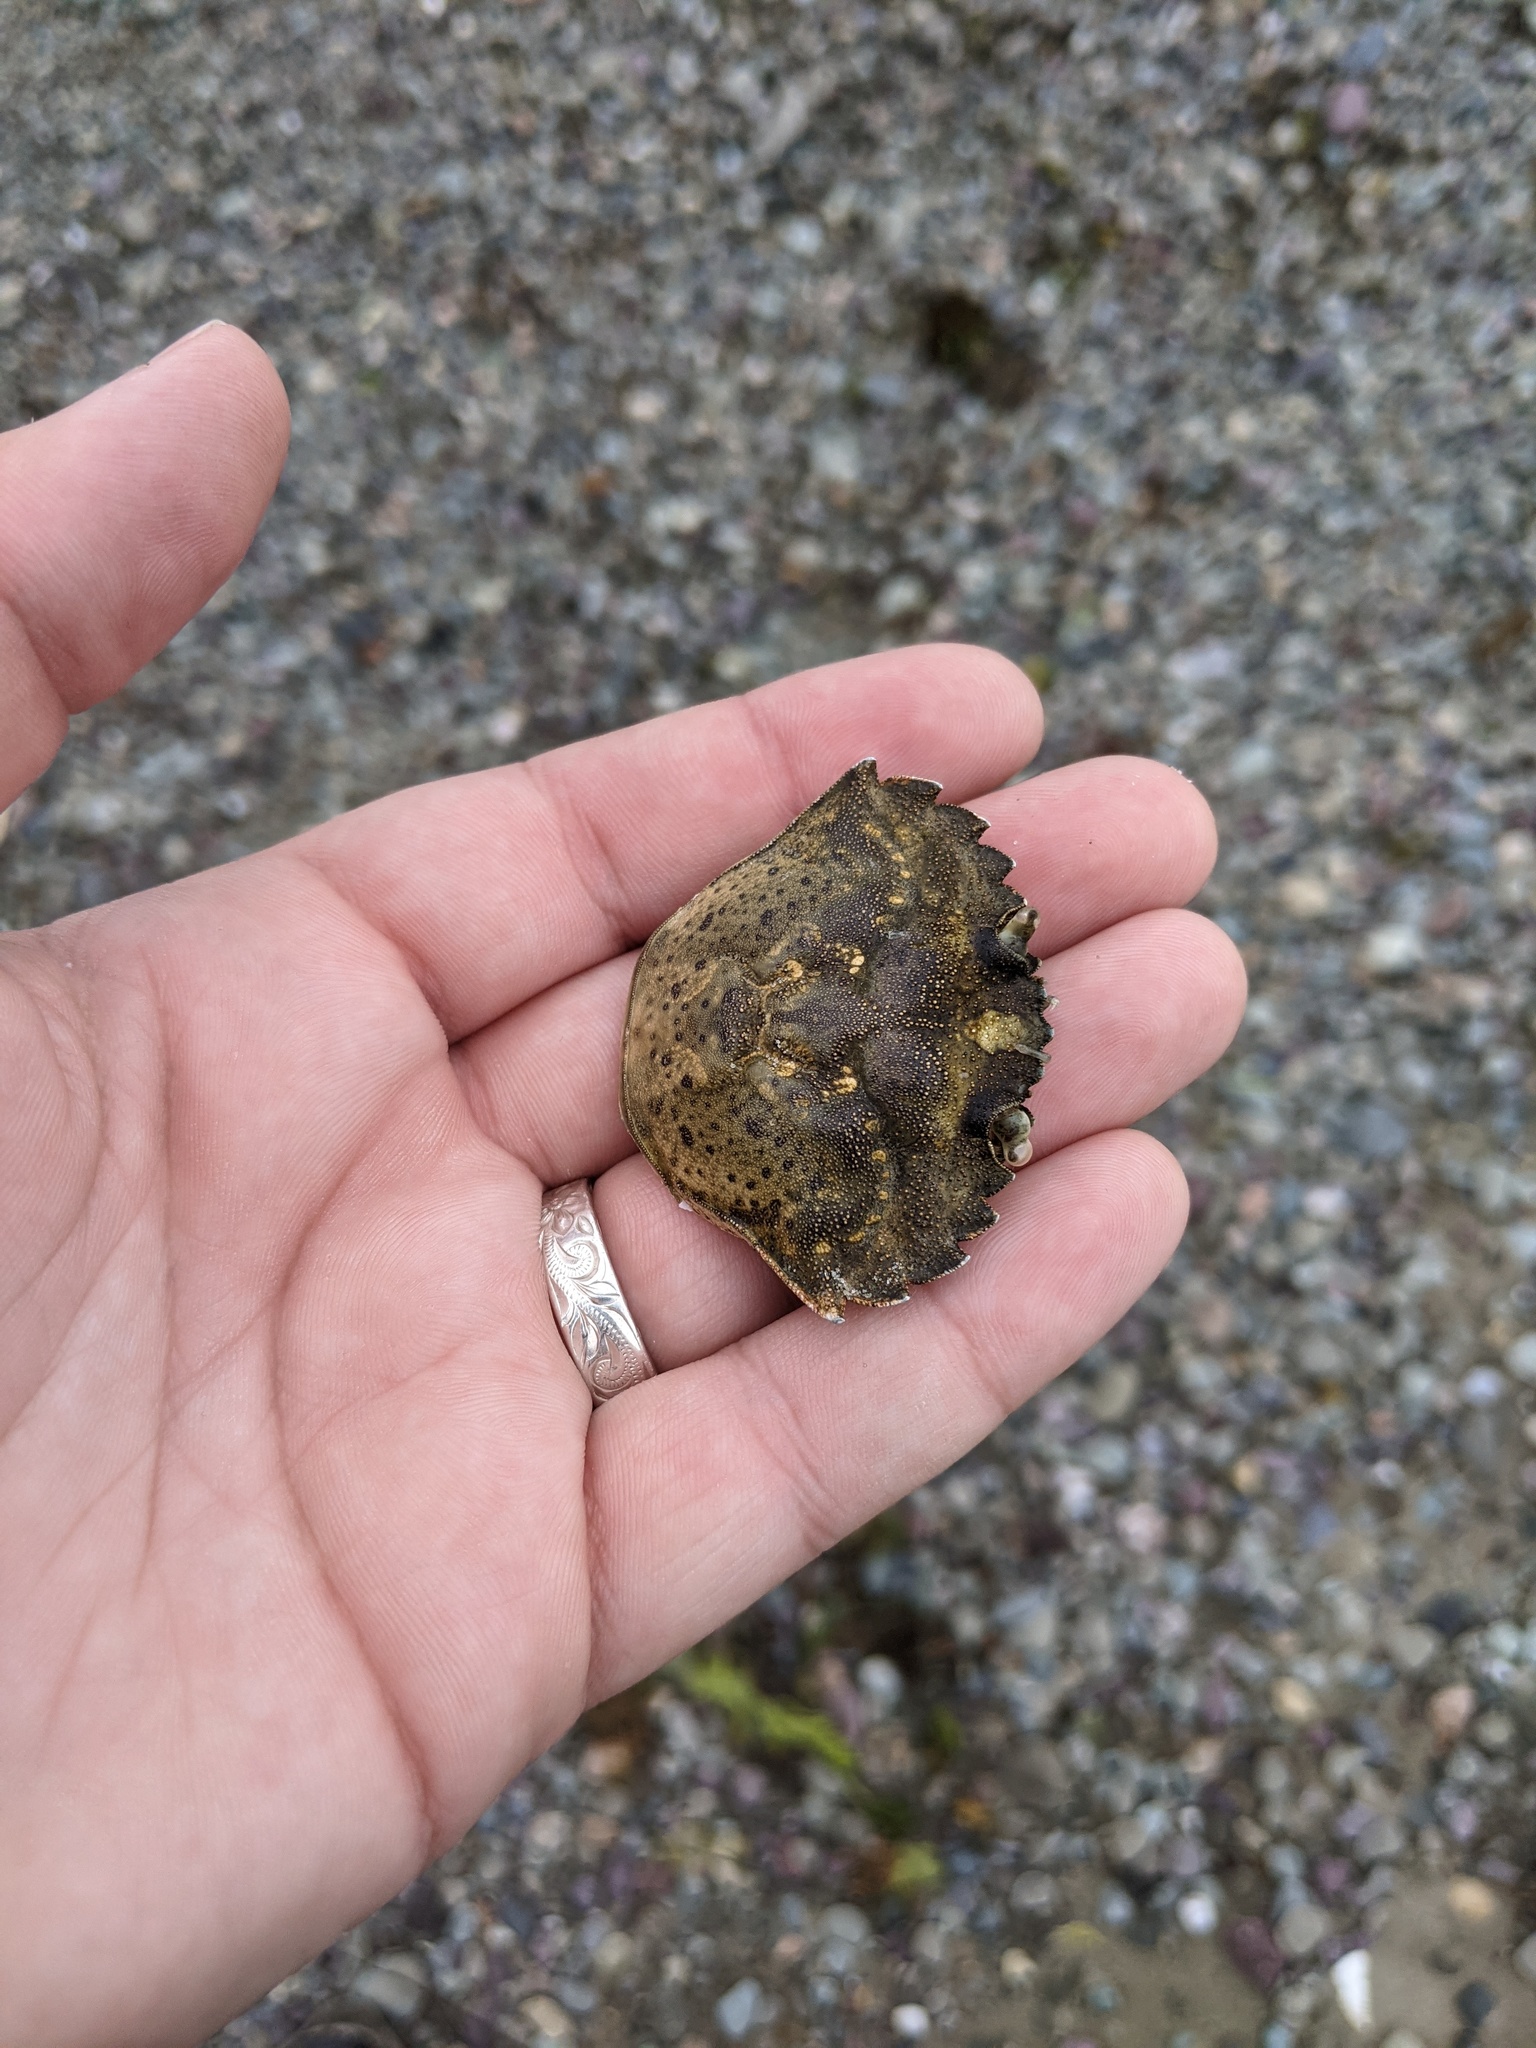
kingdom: Animalia
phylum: Arthropoda
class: Malacostraca
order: Decapoda
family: Carcinidae
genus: Carcinus
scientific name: Carcinus maenas
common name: European green crab
